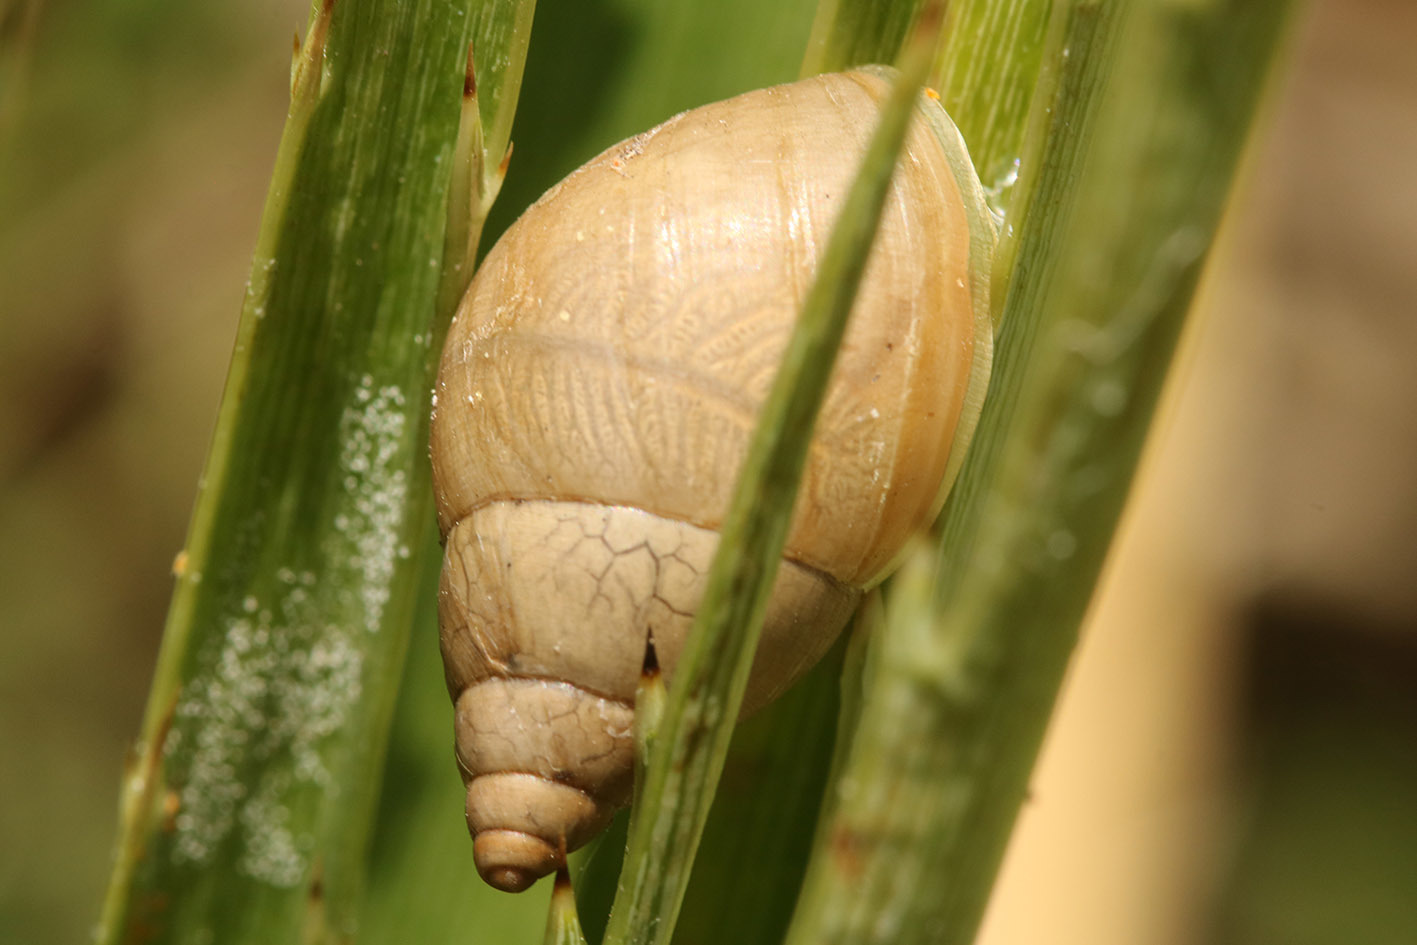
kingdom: Animalia
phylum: Mollusca
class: Gastropoda
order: Stylommatophora
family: Bulimulidae
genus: Bulimulus
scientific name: Bulimulus bonariensis
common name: Snail
